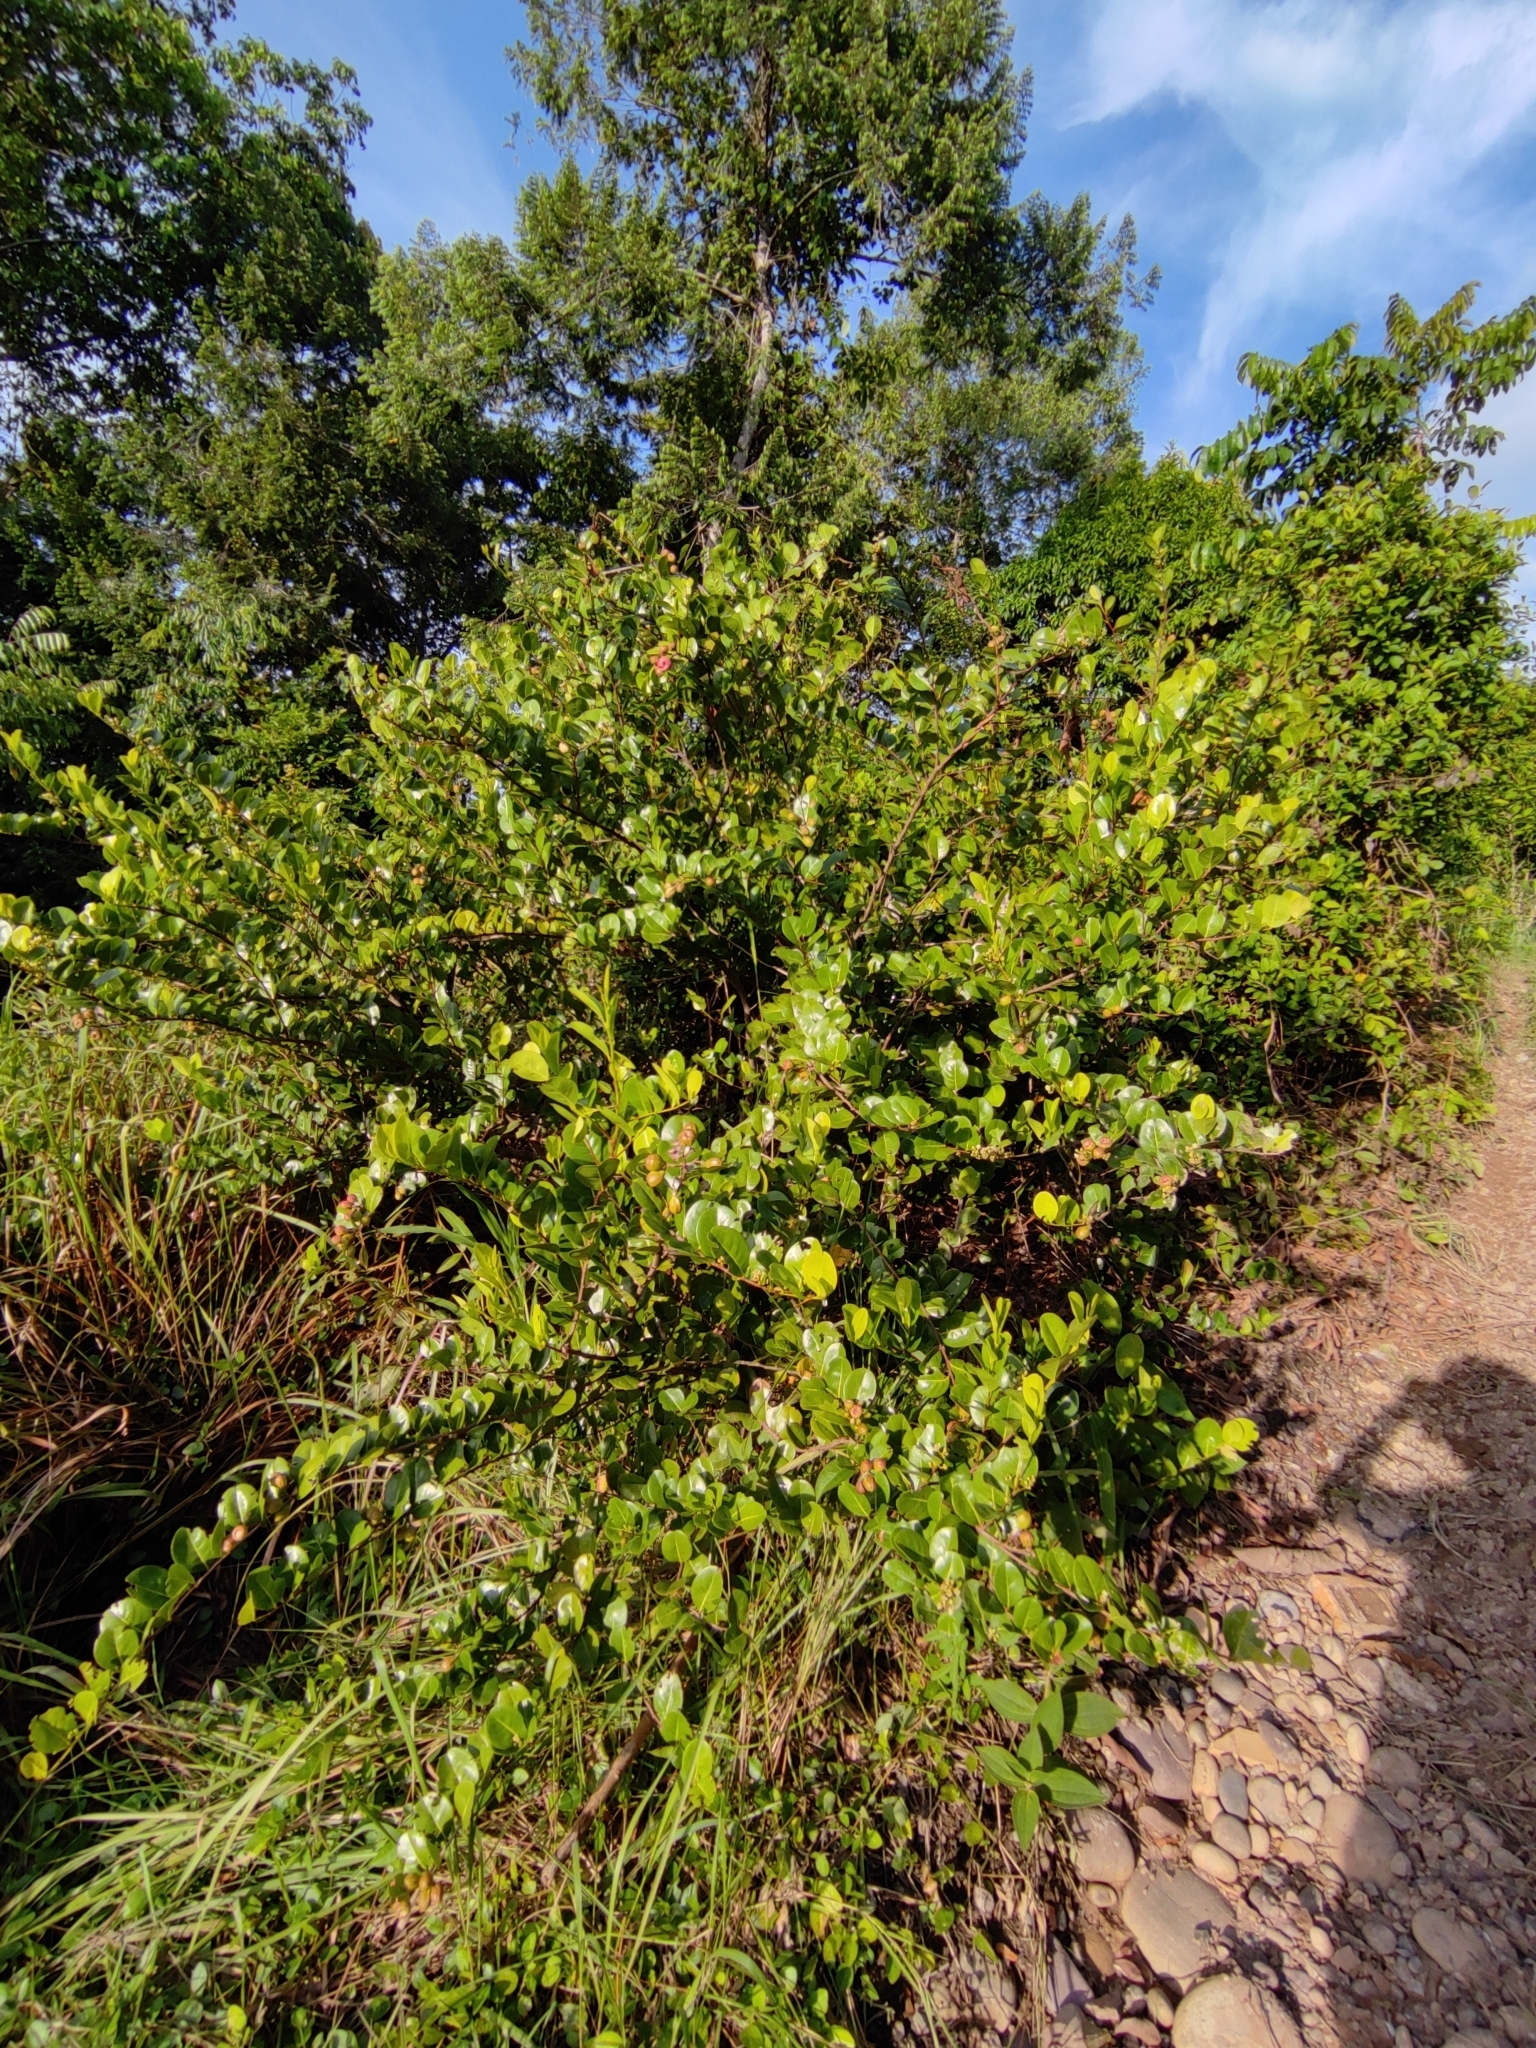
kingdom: Plantae
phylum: Tracheophyta
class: Magnoliopsida
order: Malpighiales
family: Chrysobalanaceae
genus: Chrysobalanus
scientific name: Chrysobalanus icaco
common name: Coco plum
